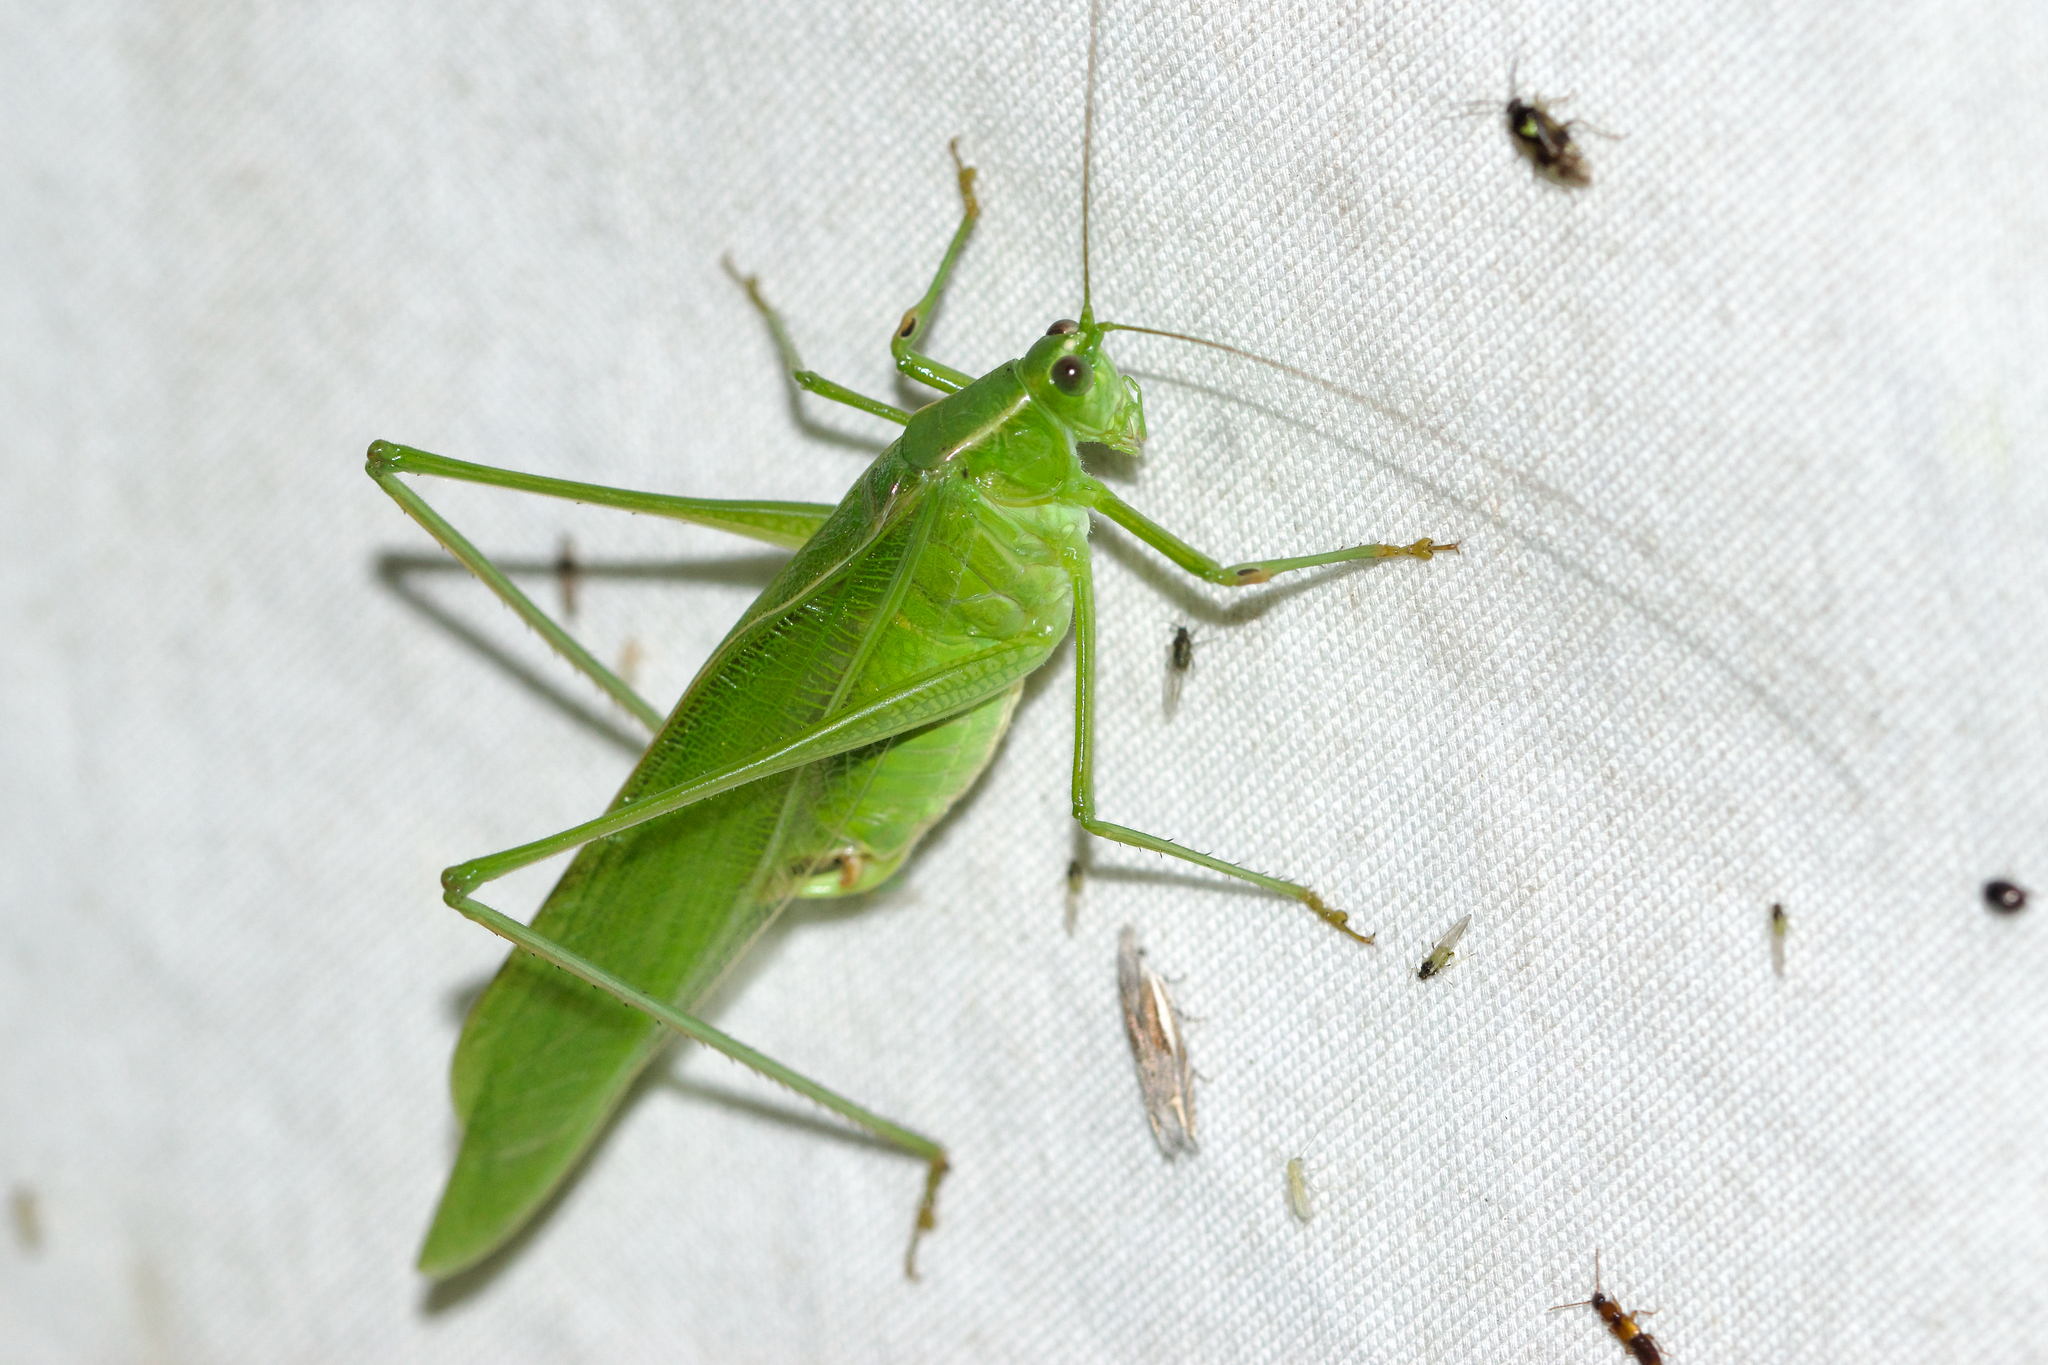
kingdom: Animalia
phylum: Arthropoda
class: Insecta
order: Orthoptera
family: Tettigoniidae
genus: Scudderia
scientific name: Scudderia furcata
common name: Fork-tailed bush katydid
